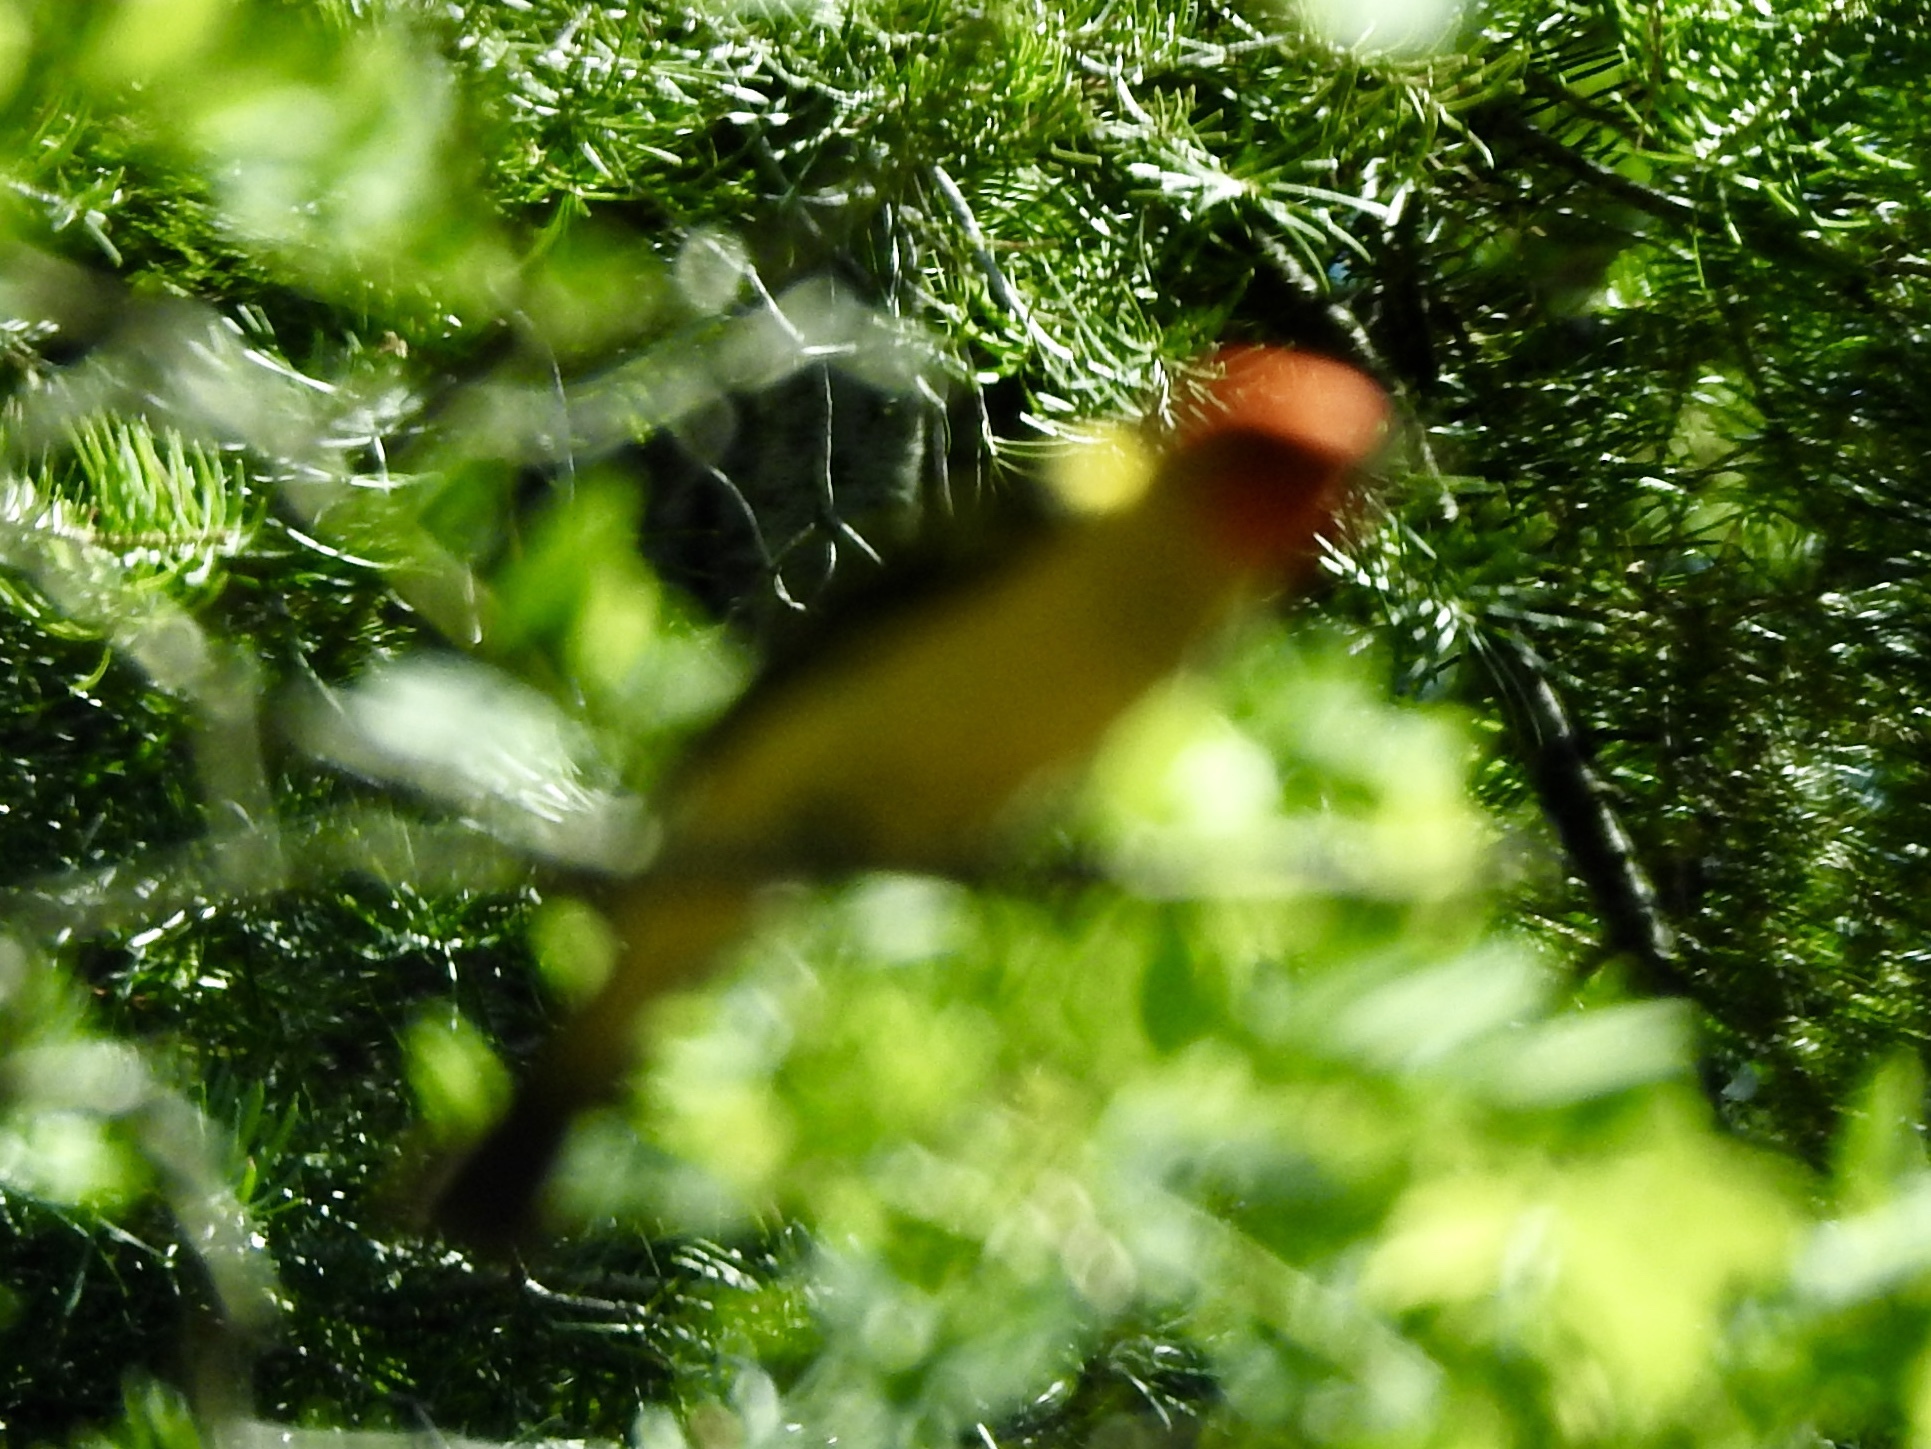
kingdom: Animalia
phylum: Chordata
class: Aves
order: Passeriformes
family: Cardinalidae
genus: Piranga
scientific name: Piranga ludoviciana
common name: Western tanager
